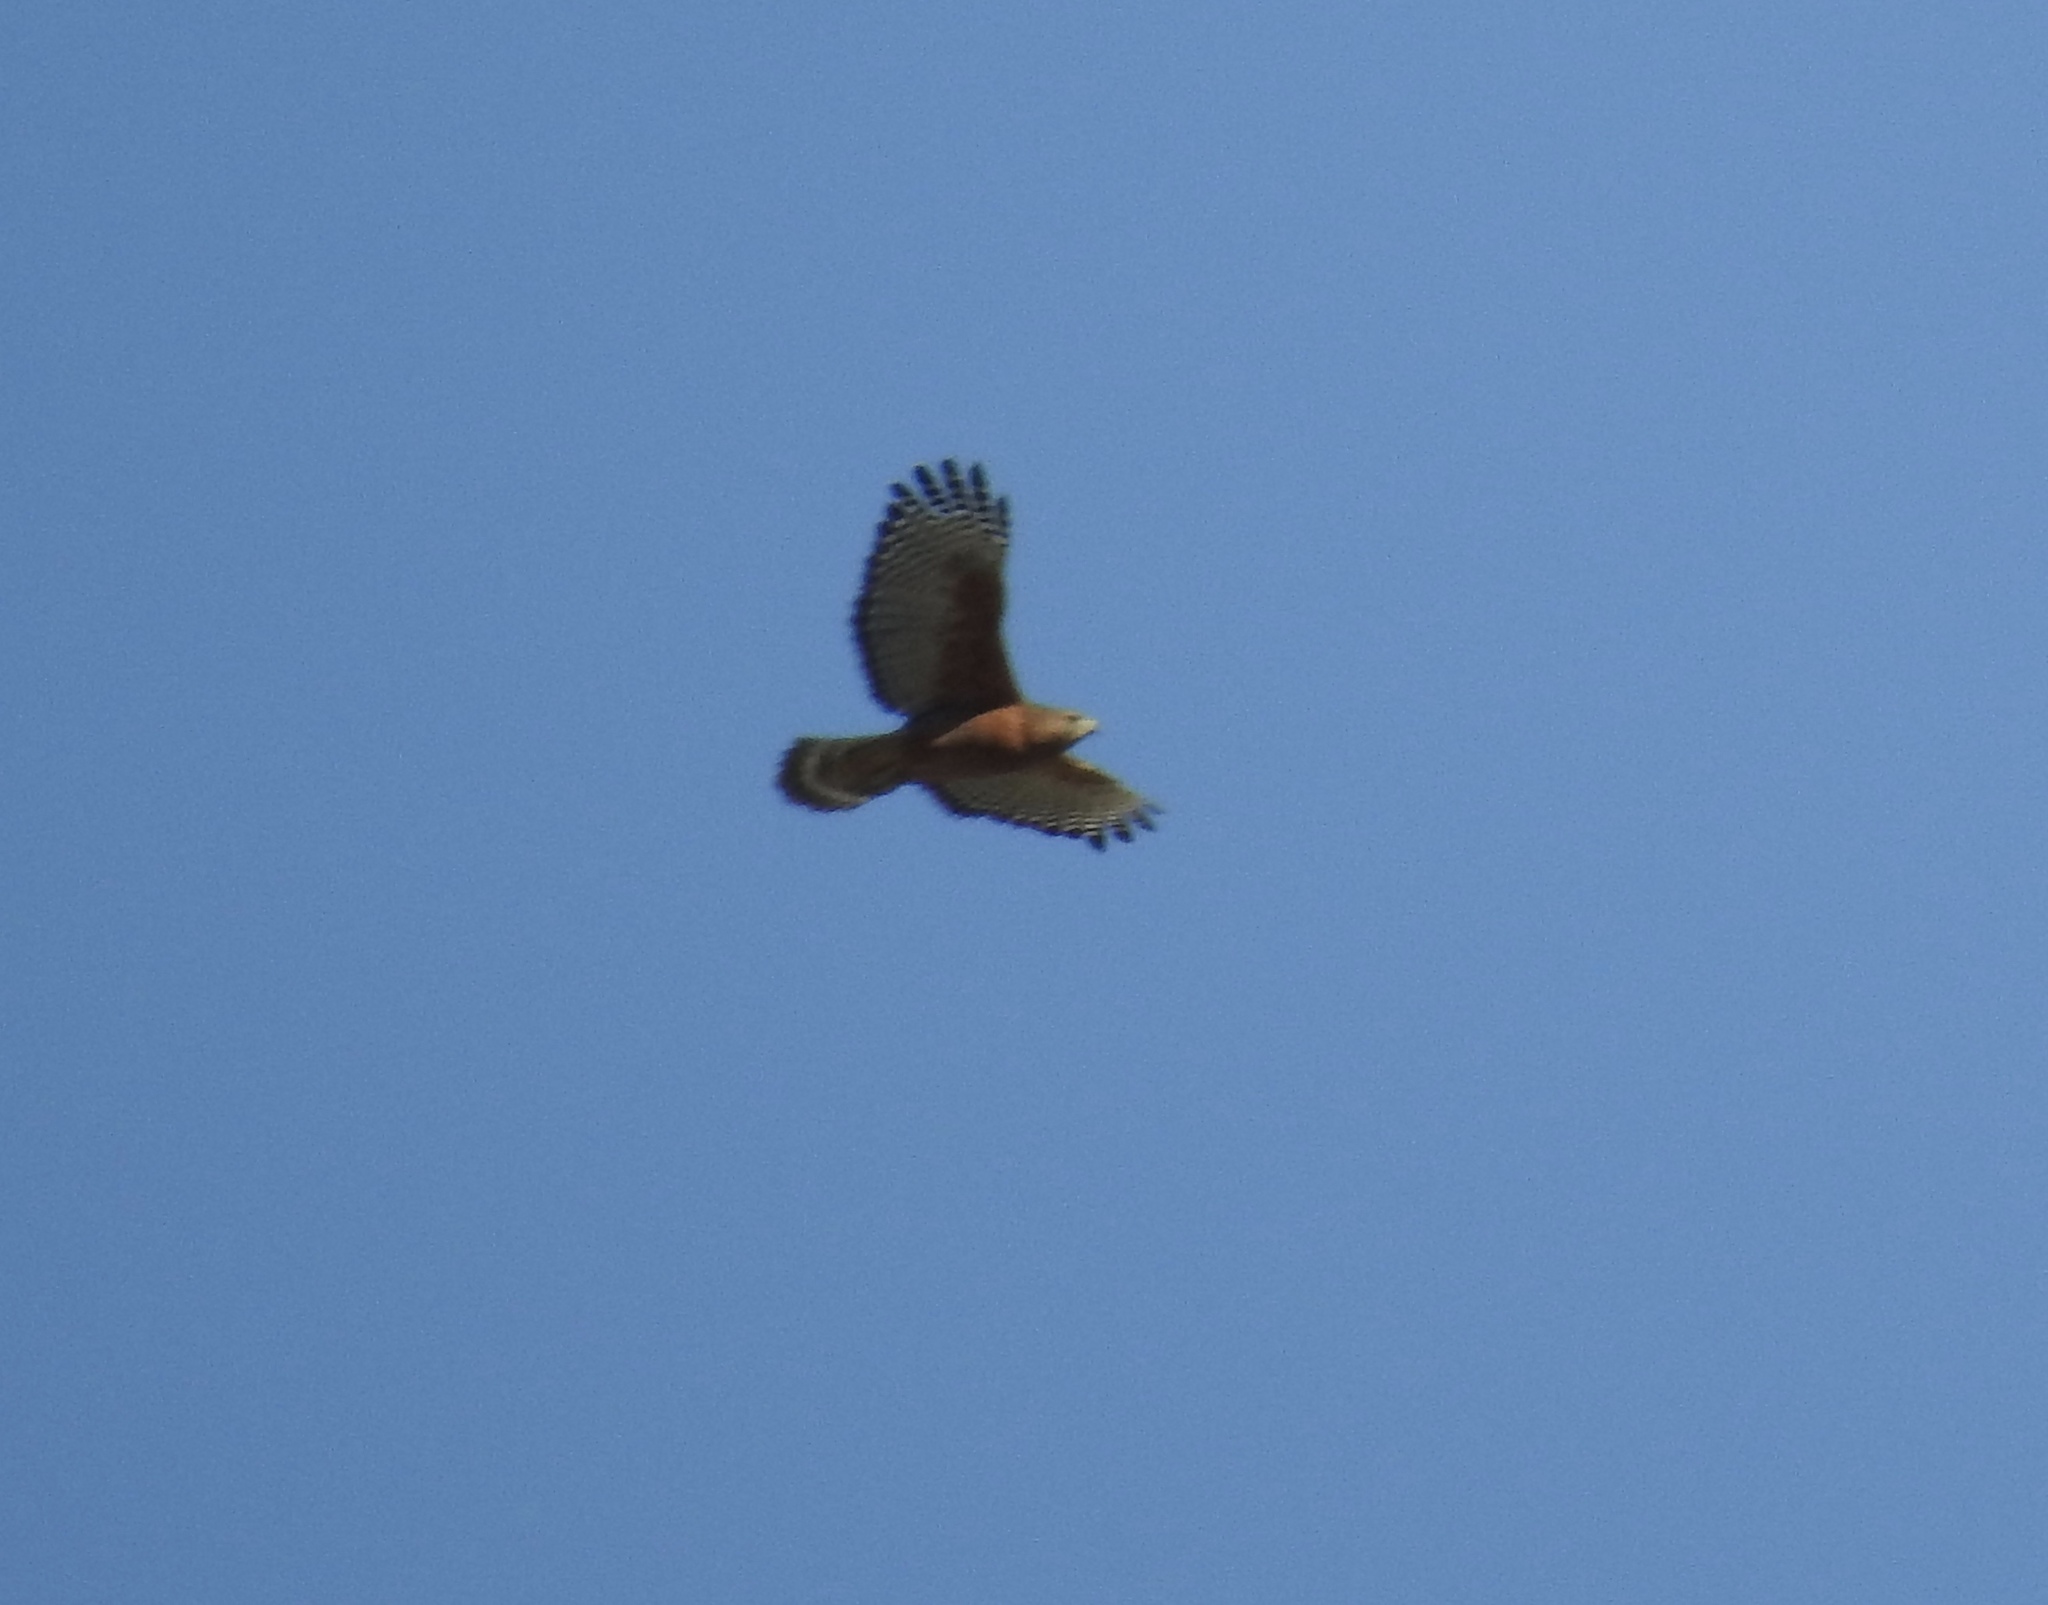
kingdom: Animalia
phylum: Chordata
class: Aves
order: Accipitriformes
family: Accipitridae
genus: Buteo
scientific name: Buteo lineatus
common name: Red-shouldered hawk
